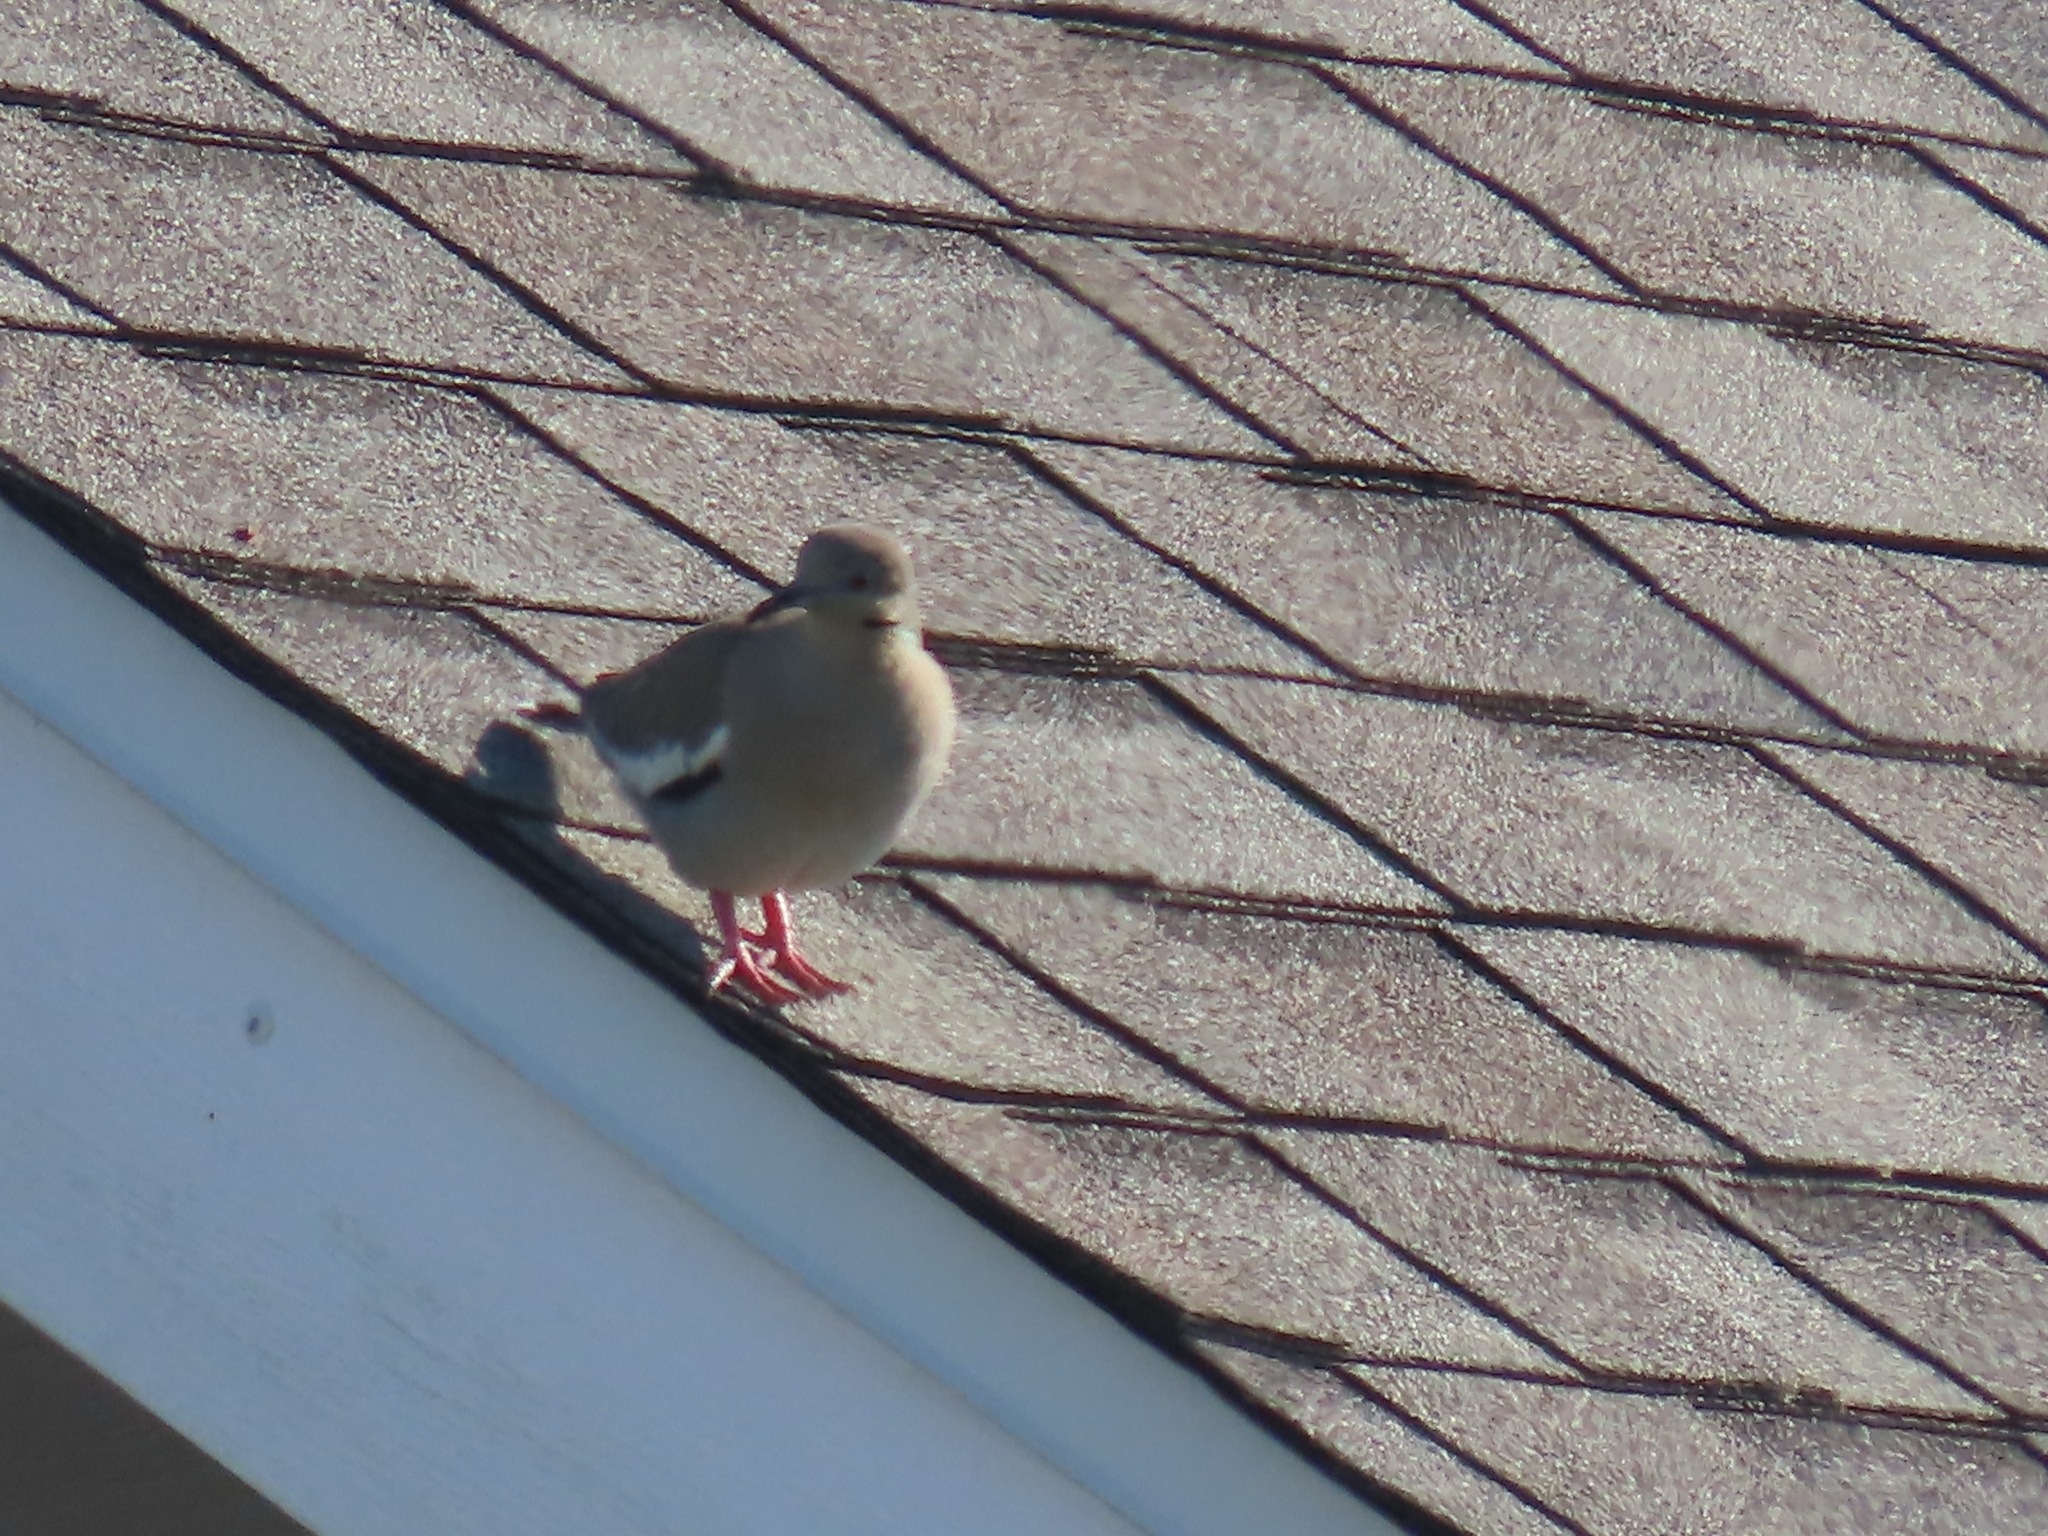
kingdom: Animalia
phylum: Chordata
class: Aves
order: Columbiformes
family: Columbidae
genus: Zenaida
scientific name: Zenaida asiatica
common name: White-winged dove
